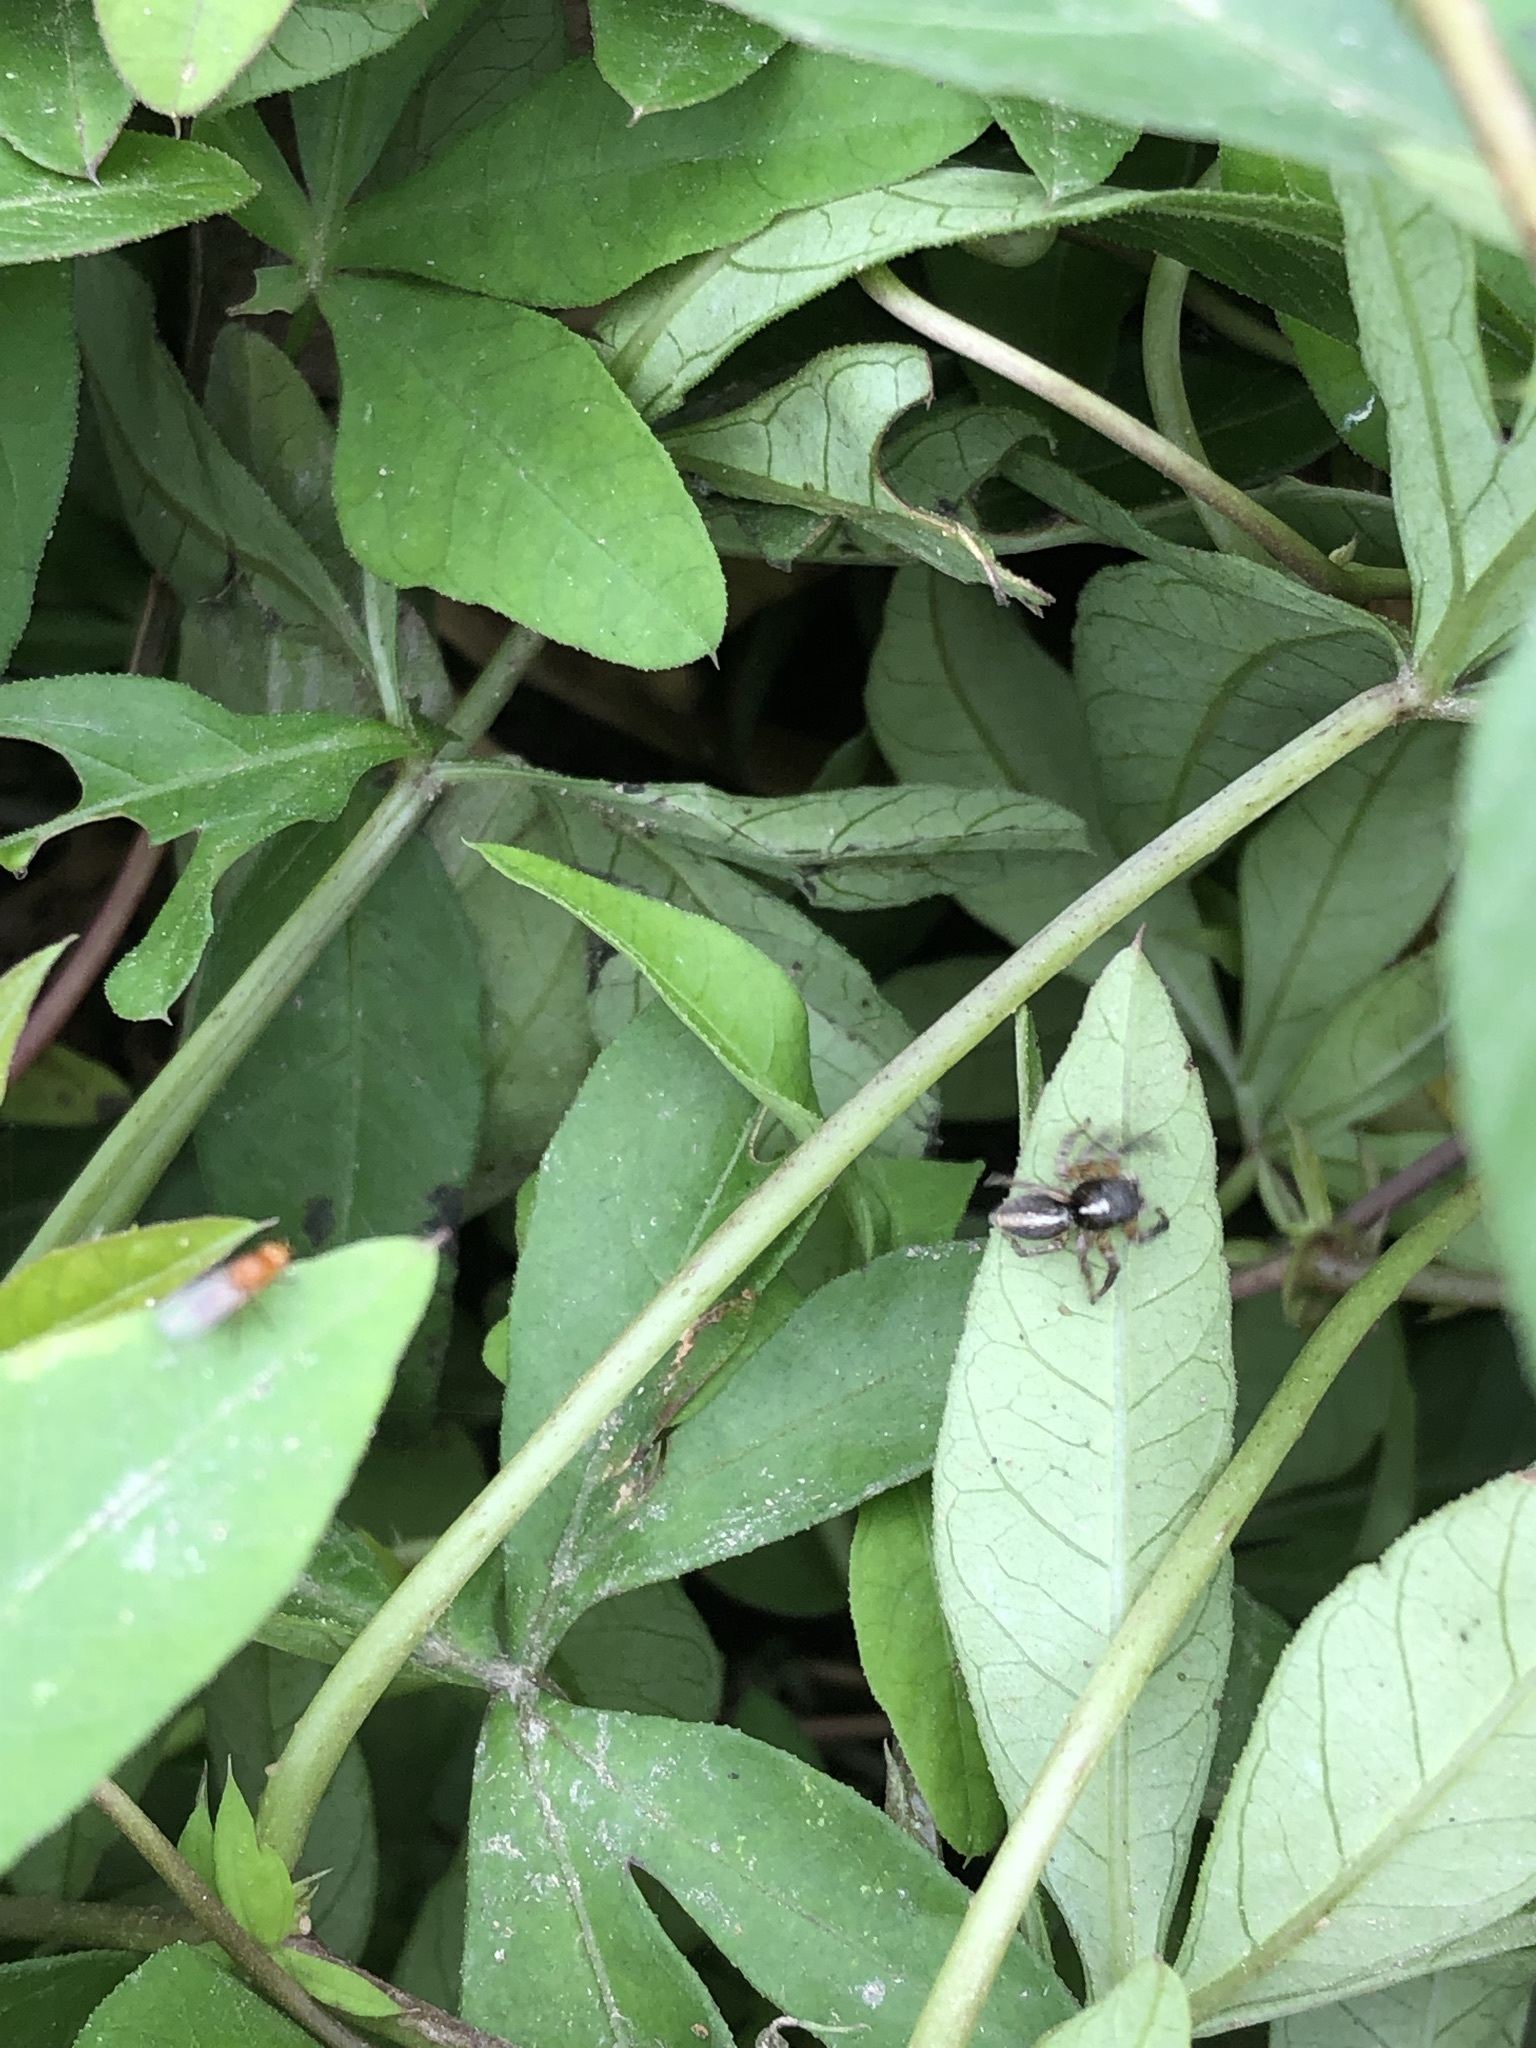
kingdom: Animalia
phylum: Arthropoda
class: Arachnida
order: Araneae
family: Salticidae
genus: Frigga
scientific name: Frigga crocuta
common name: Jumping spiders
